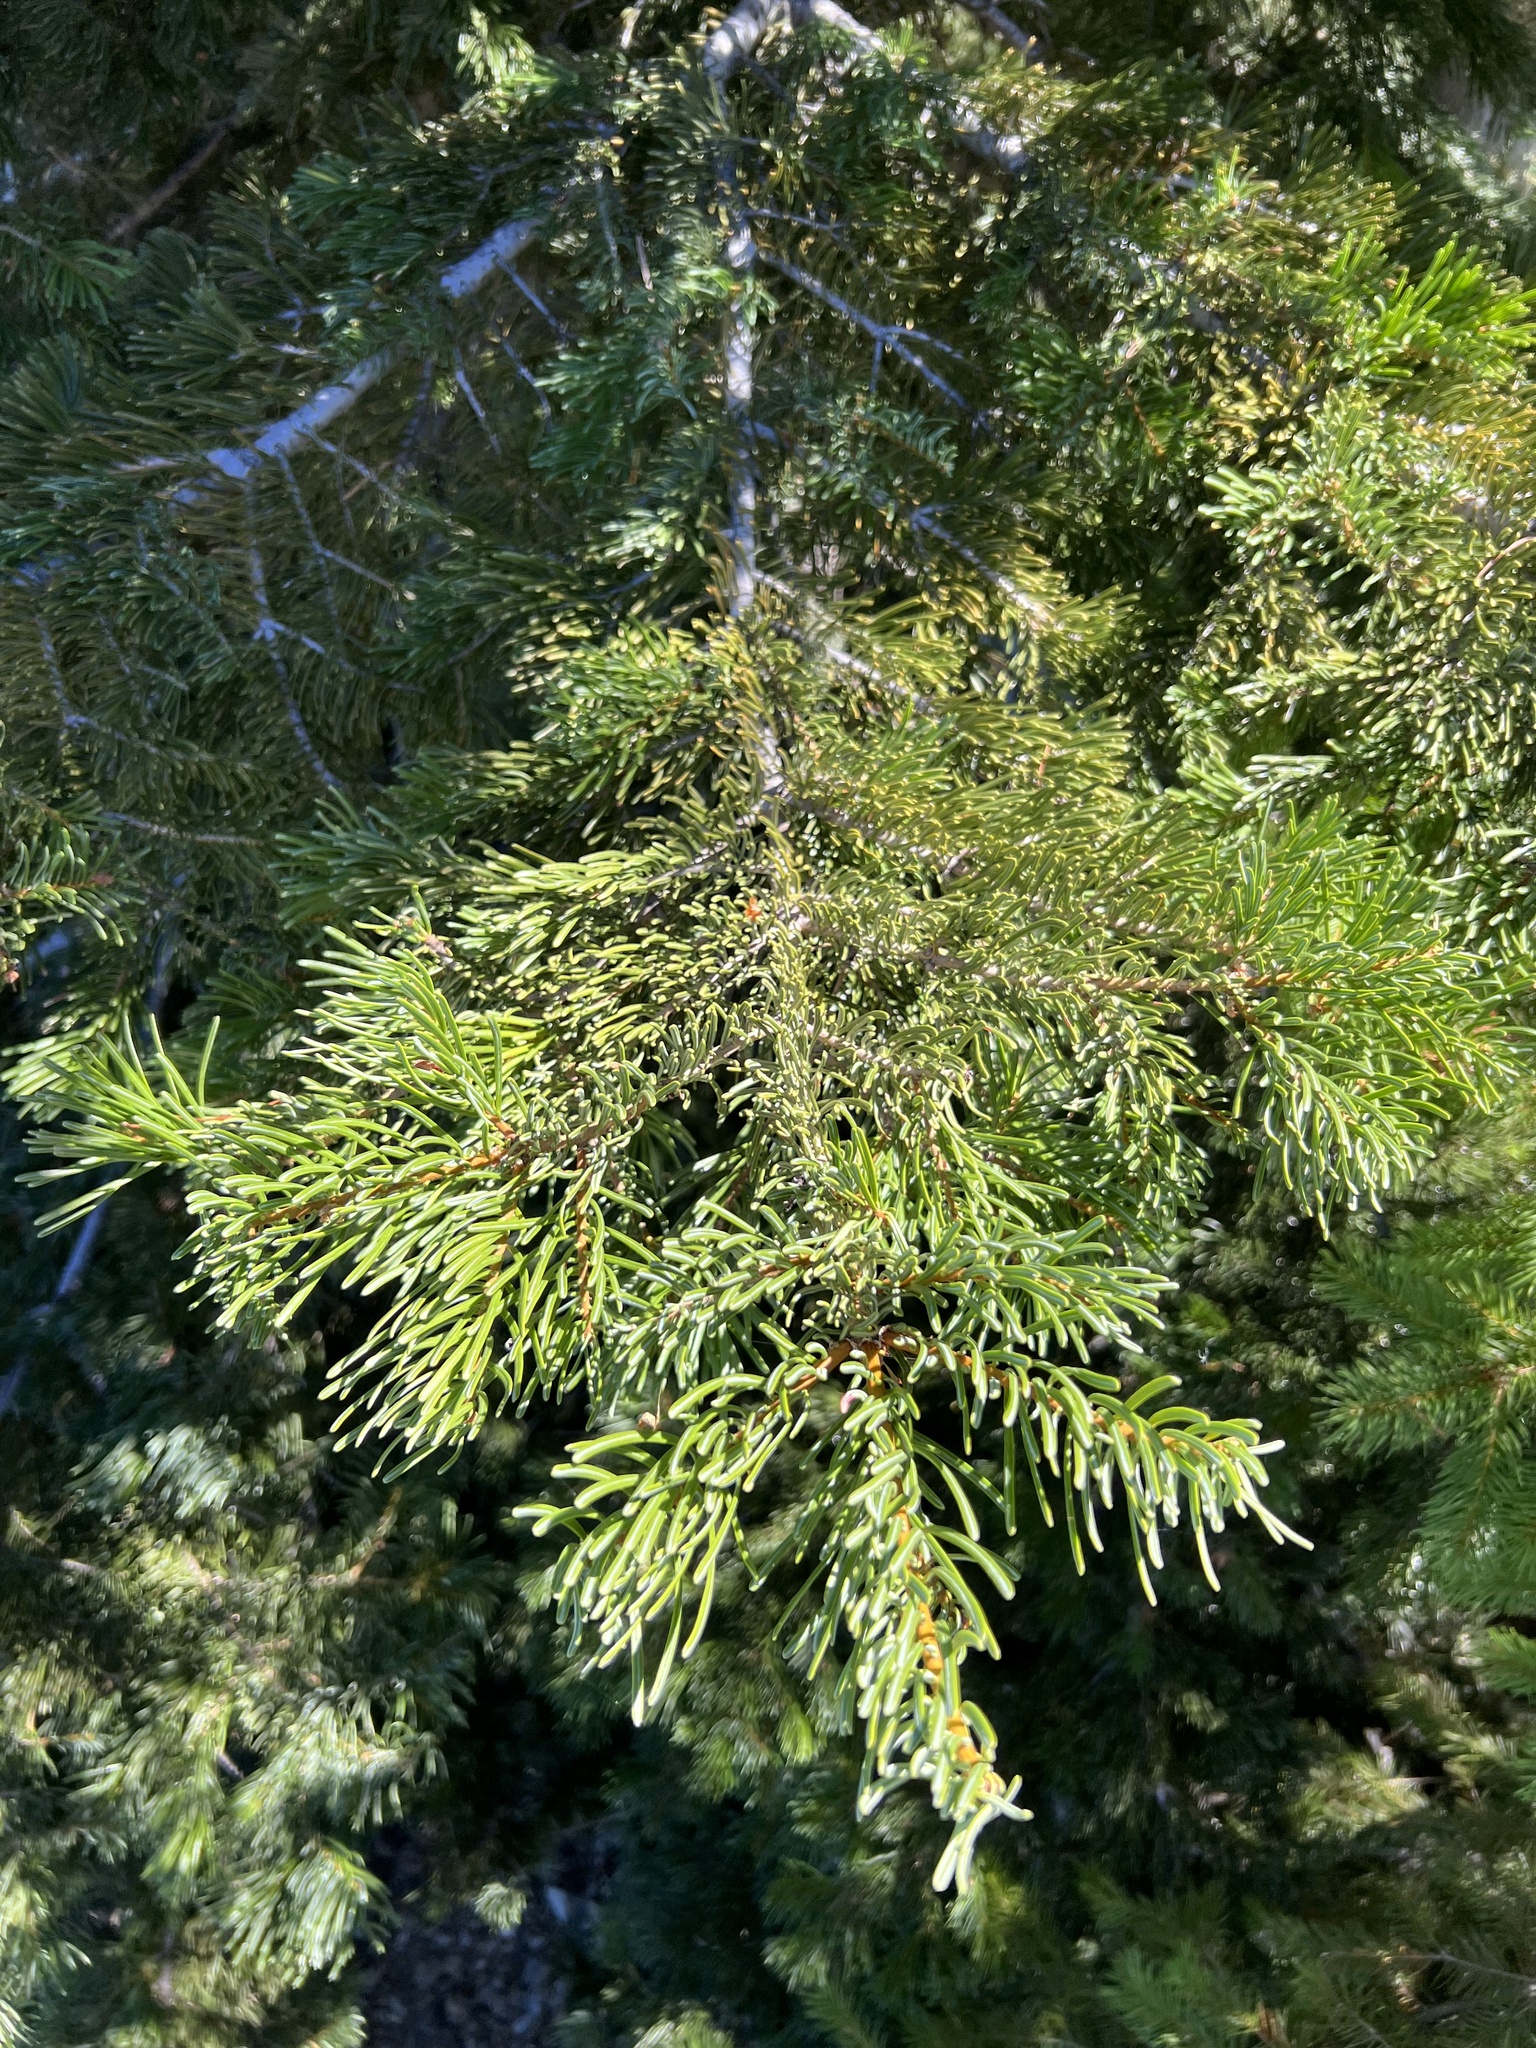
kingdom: Plantae
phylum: Tracheophyta
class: Pinopsida
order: Pinales
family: Pinaceae
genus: Abies
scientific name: Abies concolor
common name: Colorado fir
